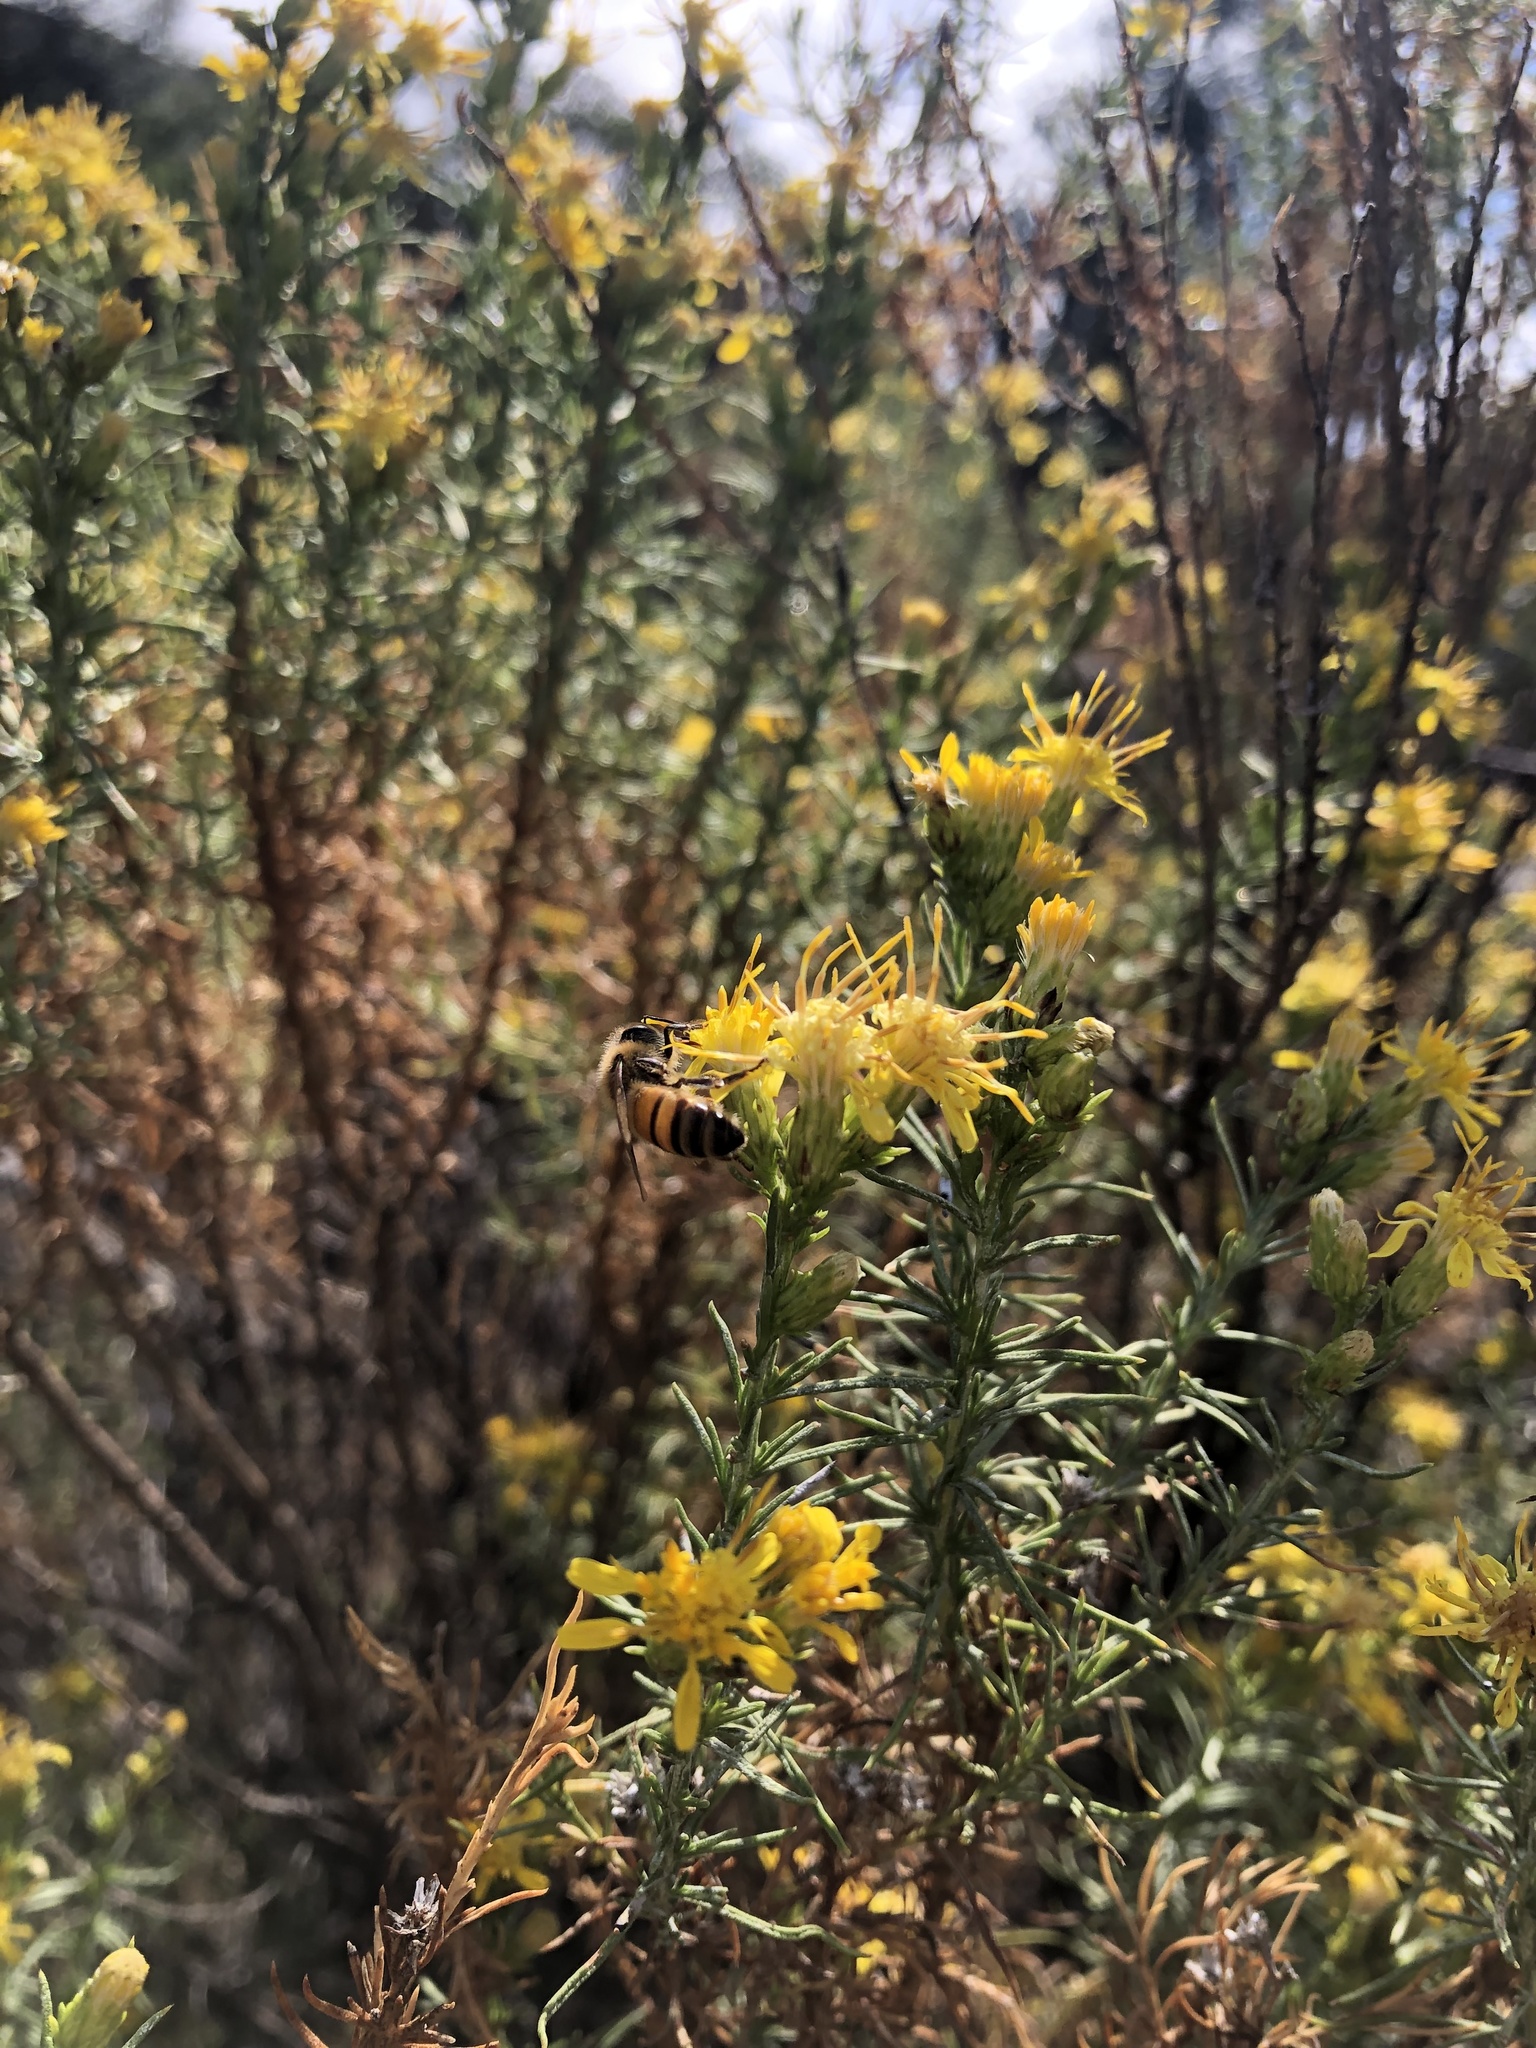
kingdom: Plantae
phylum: Tracheophyta
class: Magnoliopsida
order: Asterales
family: Asteraceae
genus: Ericameria
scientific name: Ericameria pinifolia
